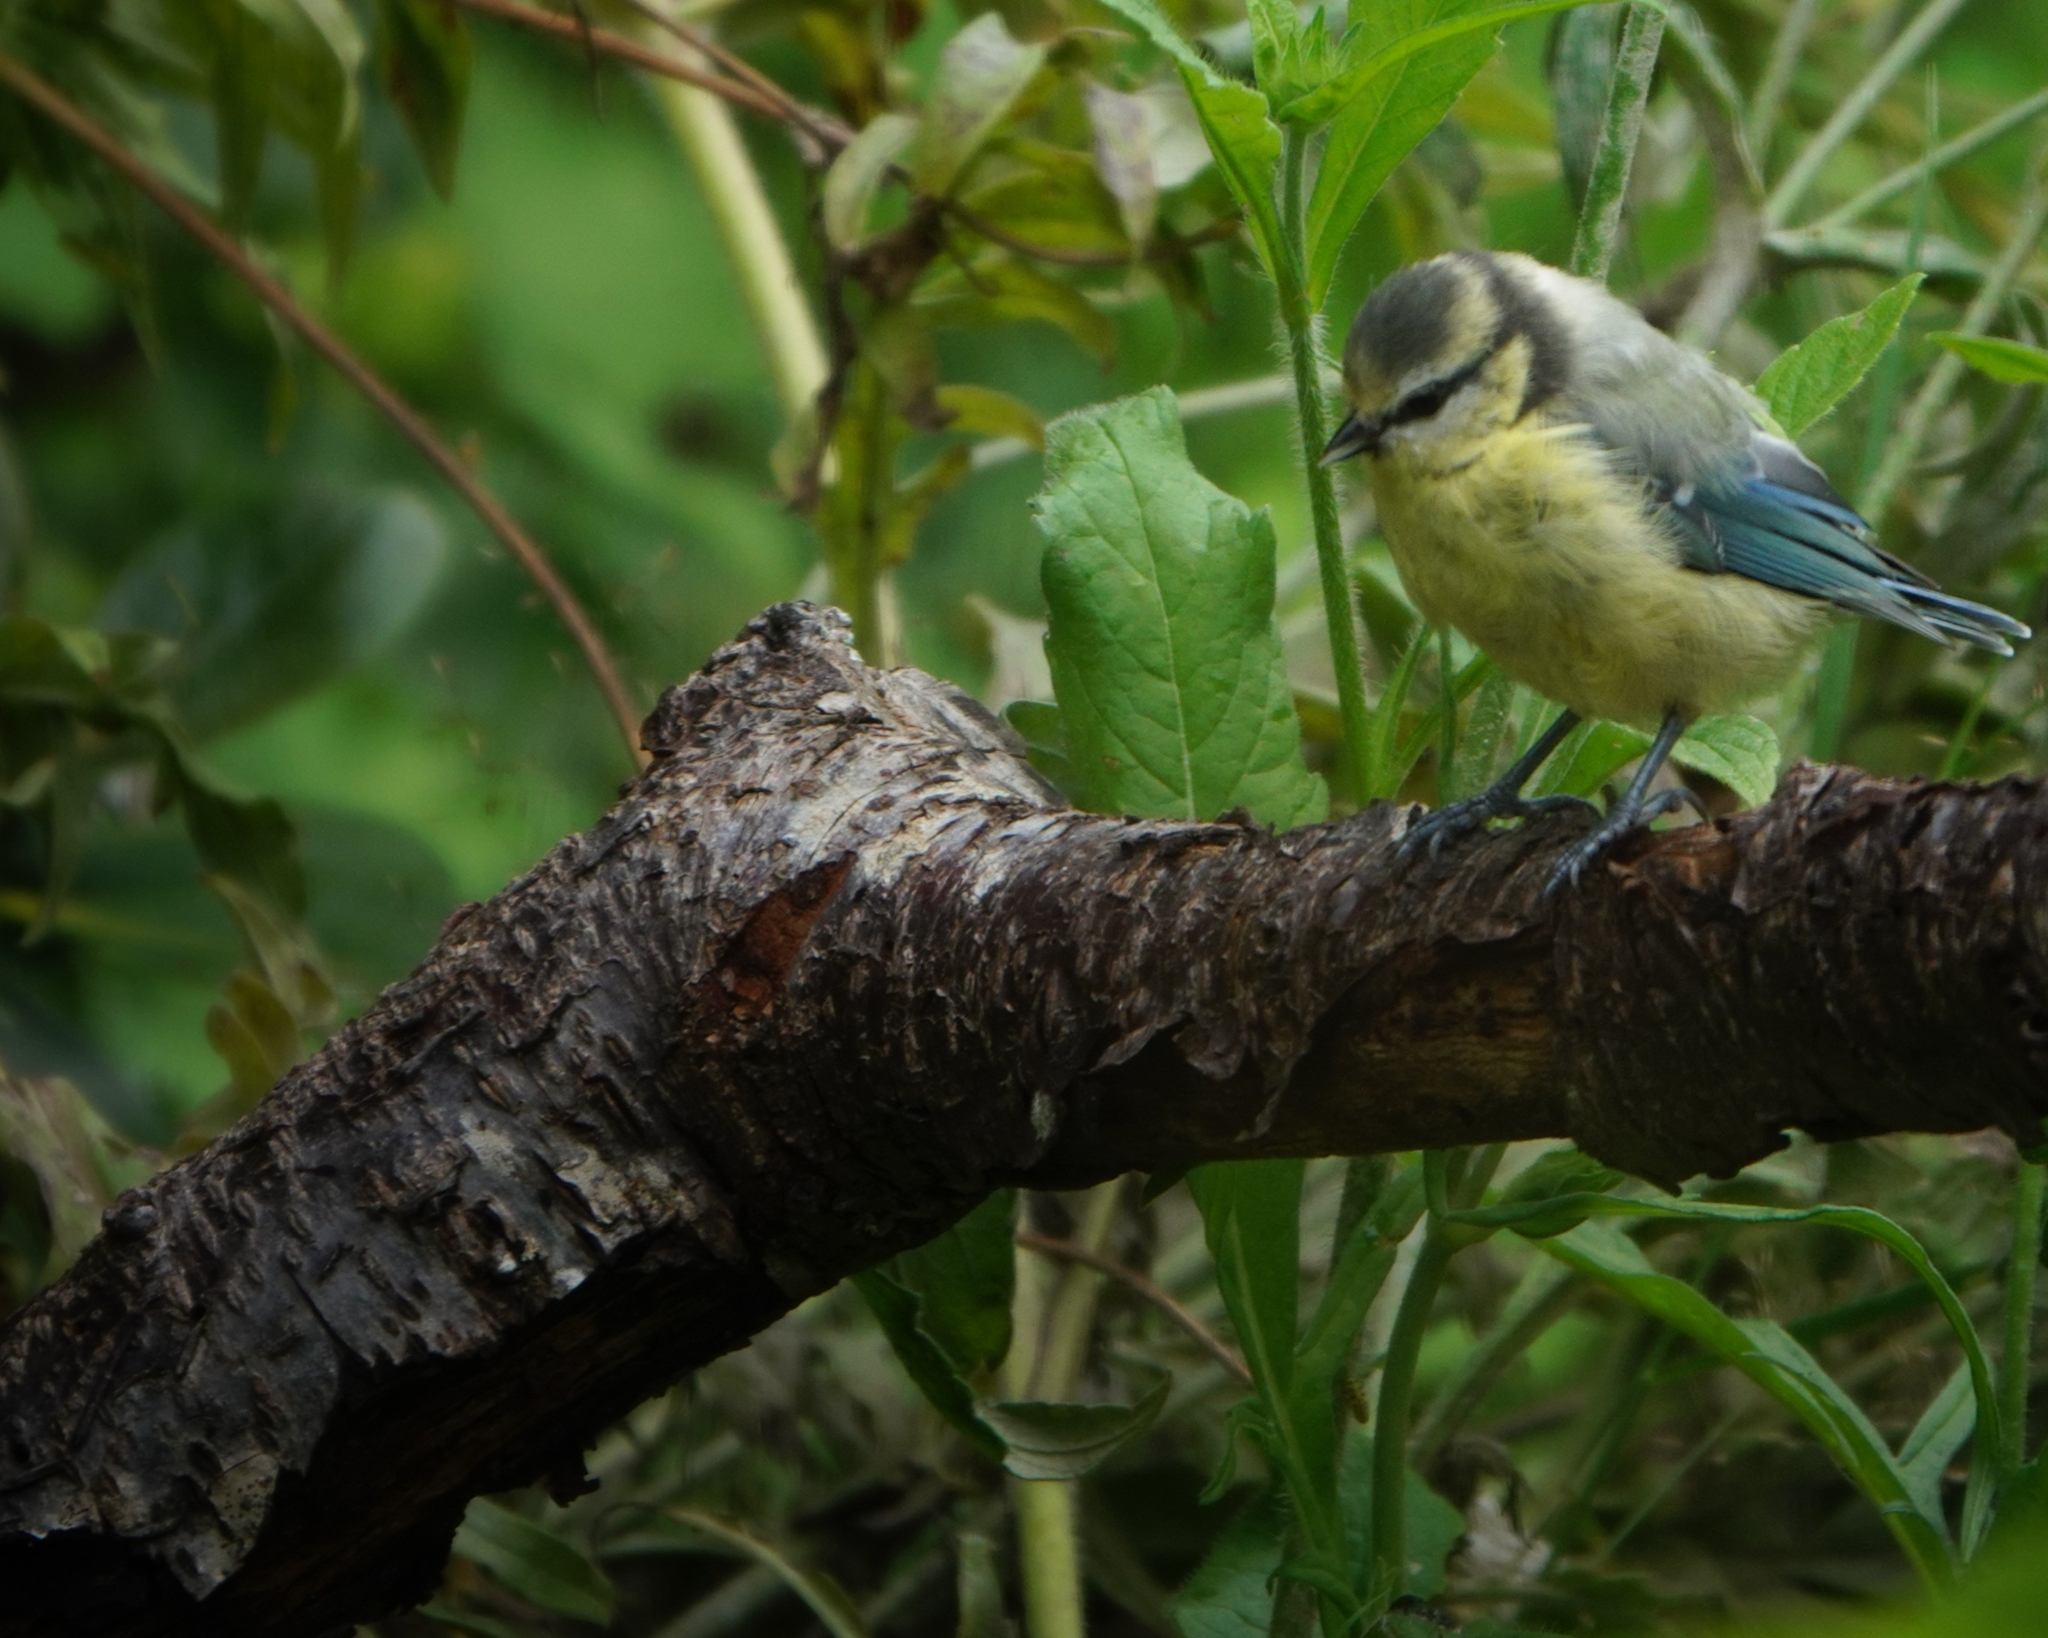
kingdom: Animalia
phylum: Chordata
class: Aves
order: Passeriformes
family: Paridae
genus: Cyanistes
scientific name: Cyanistes caeruleus
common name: Eurasian blue tit
